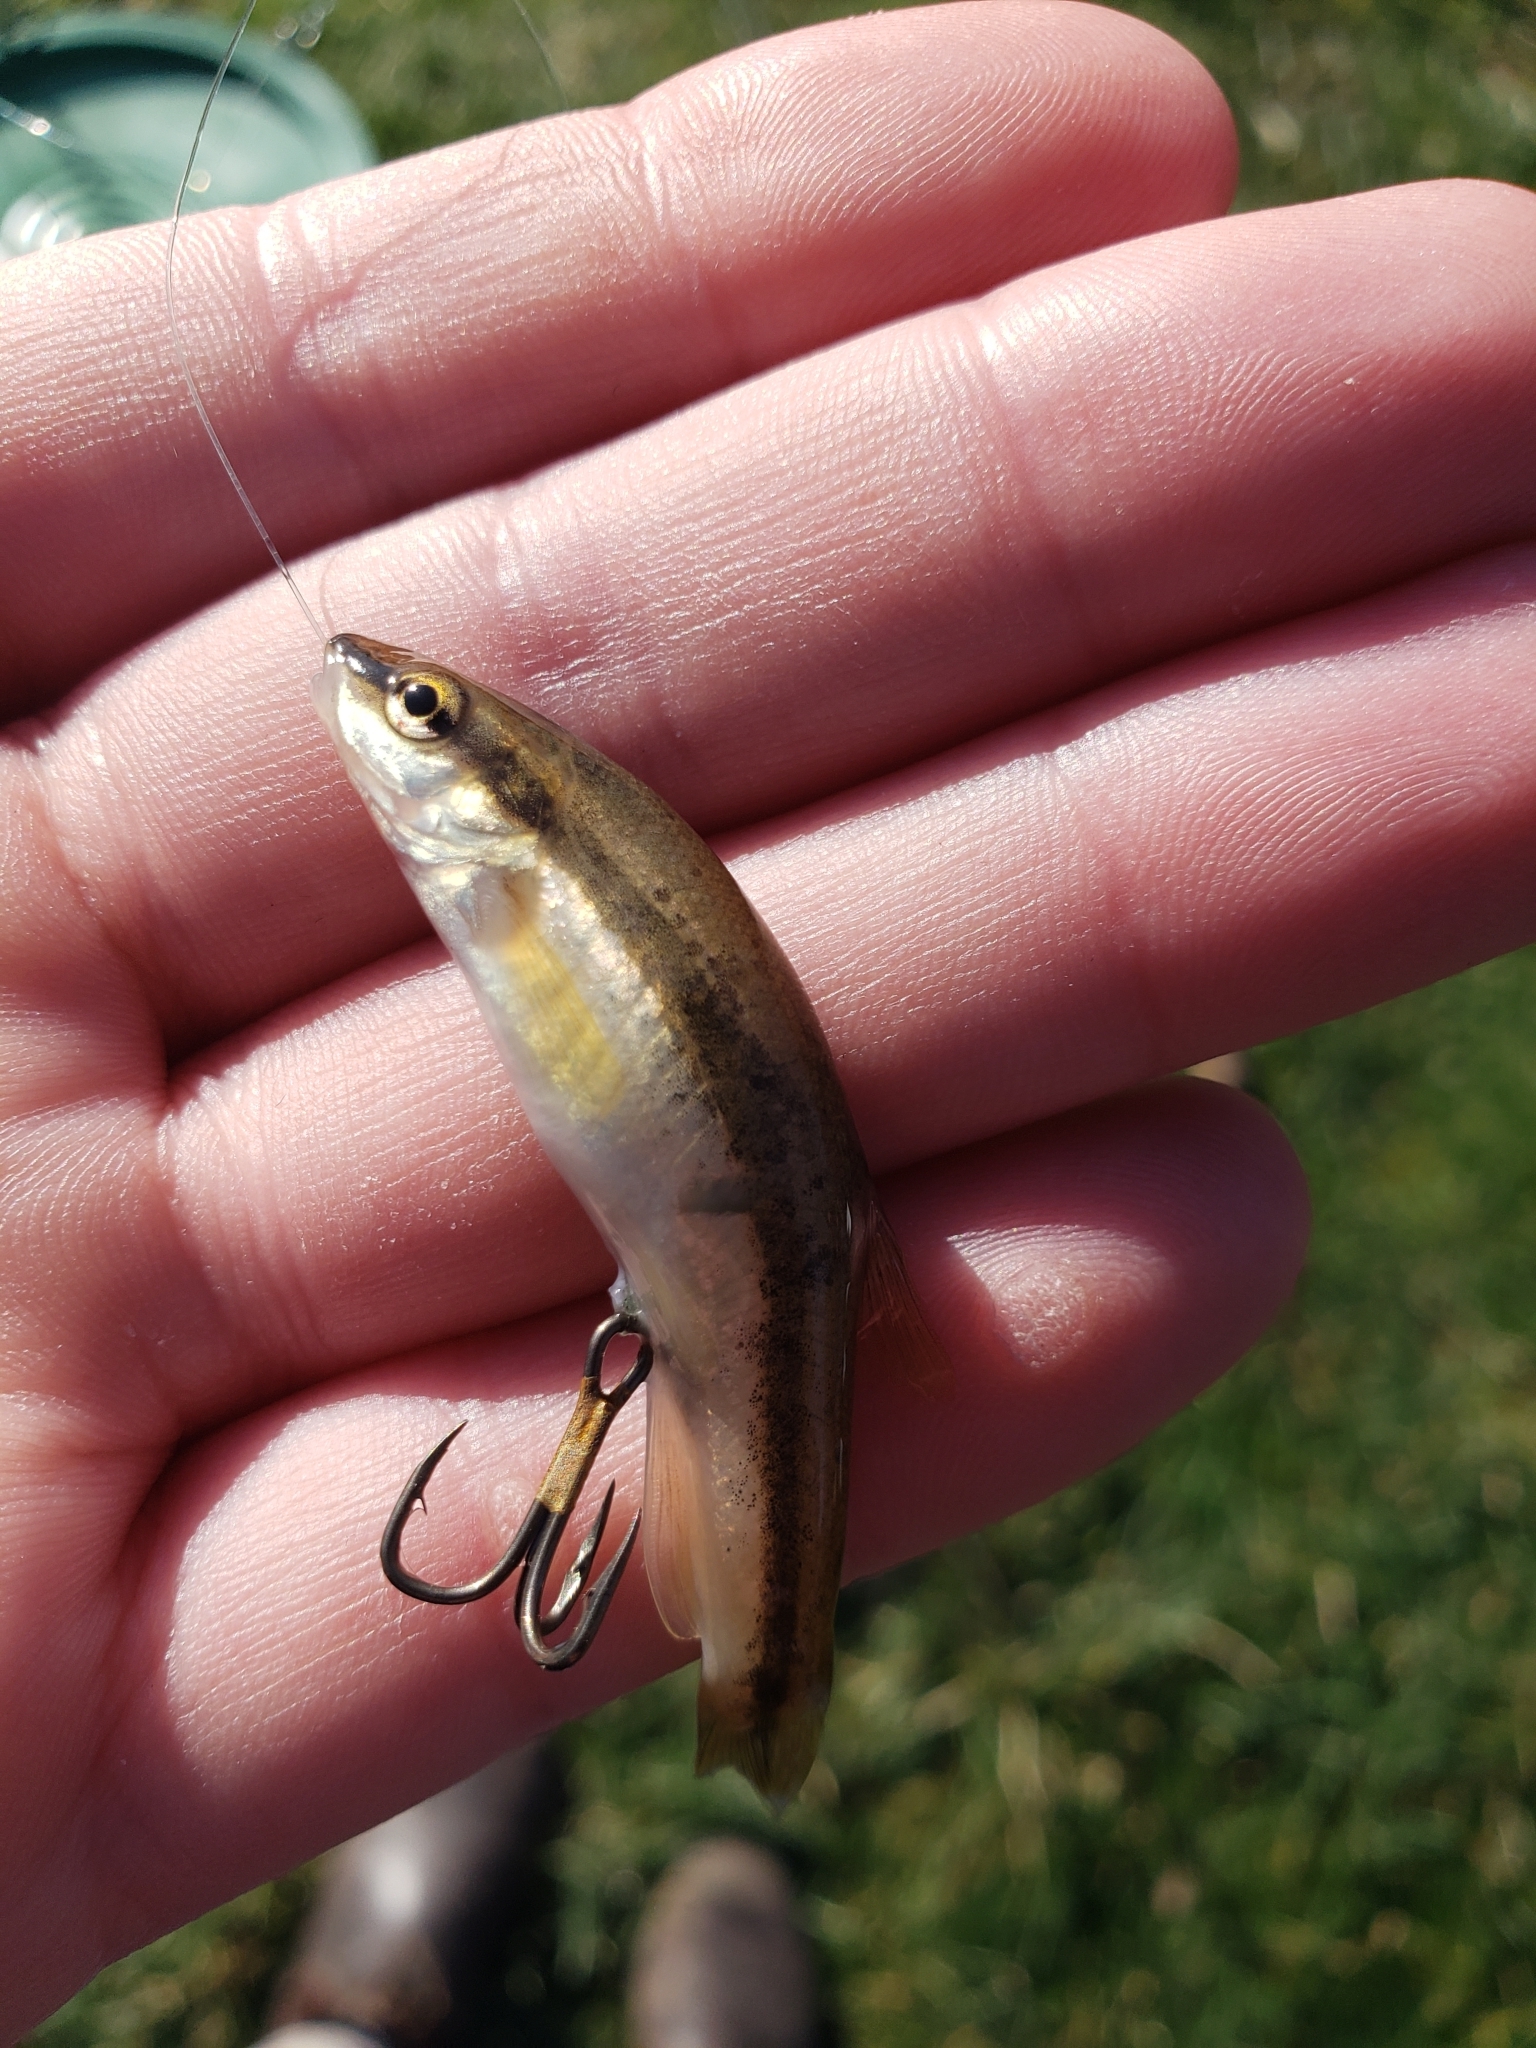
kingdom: Animalia
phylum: Chordata
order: Cypriniformes
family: Cyprinidae
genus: Rhinichthys
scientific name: Rhinichthys atratulus
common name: Eastern blacknose dace
